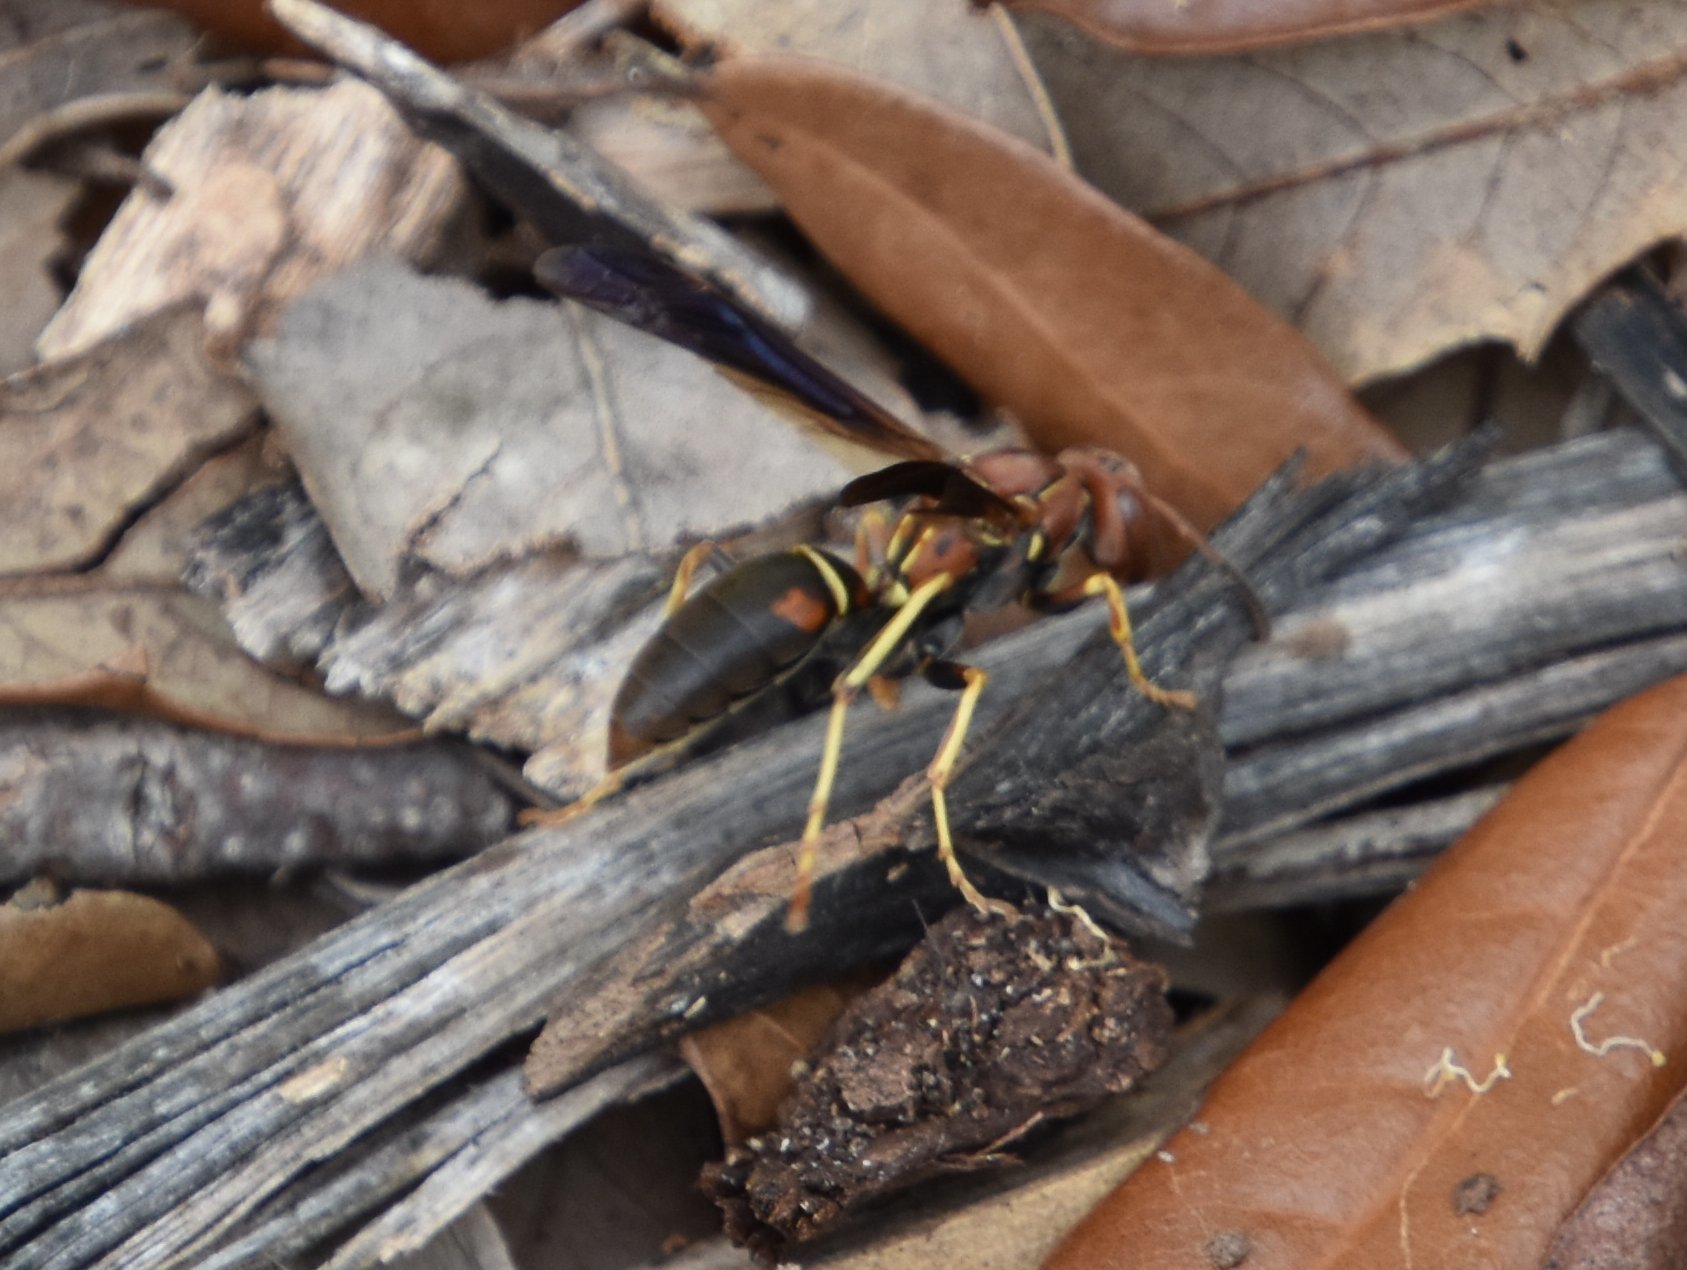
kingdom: Animalia
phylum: Arthropoda
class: Insecta
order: Hymenoptera
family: Eumenidae
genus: Polistes
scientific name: Polistes fuscatus
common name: Dark paper wasp
